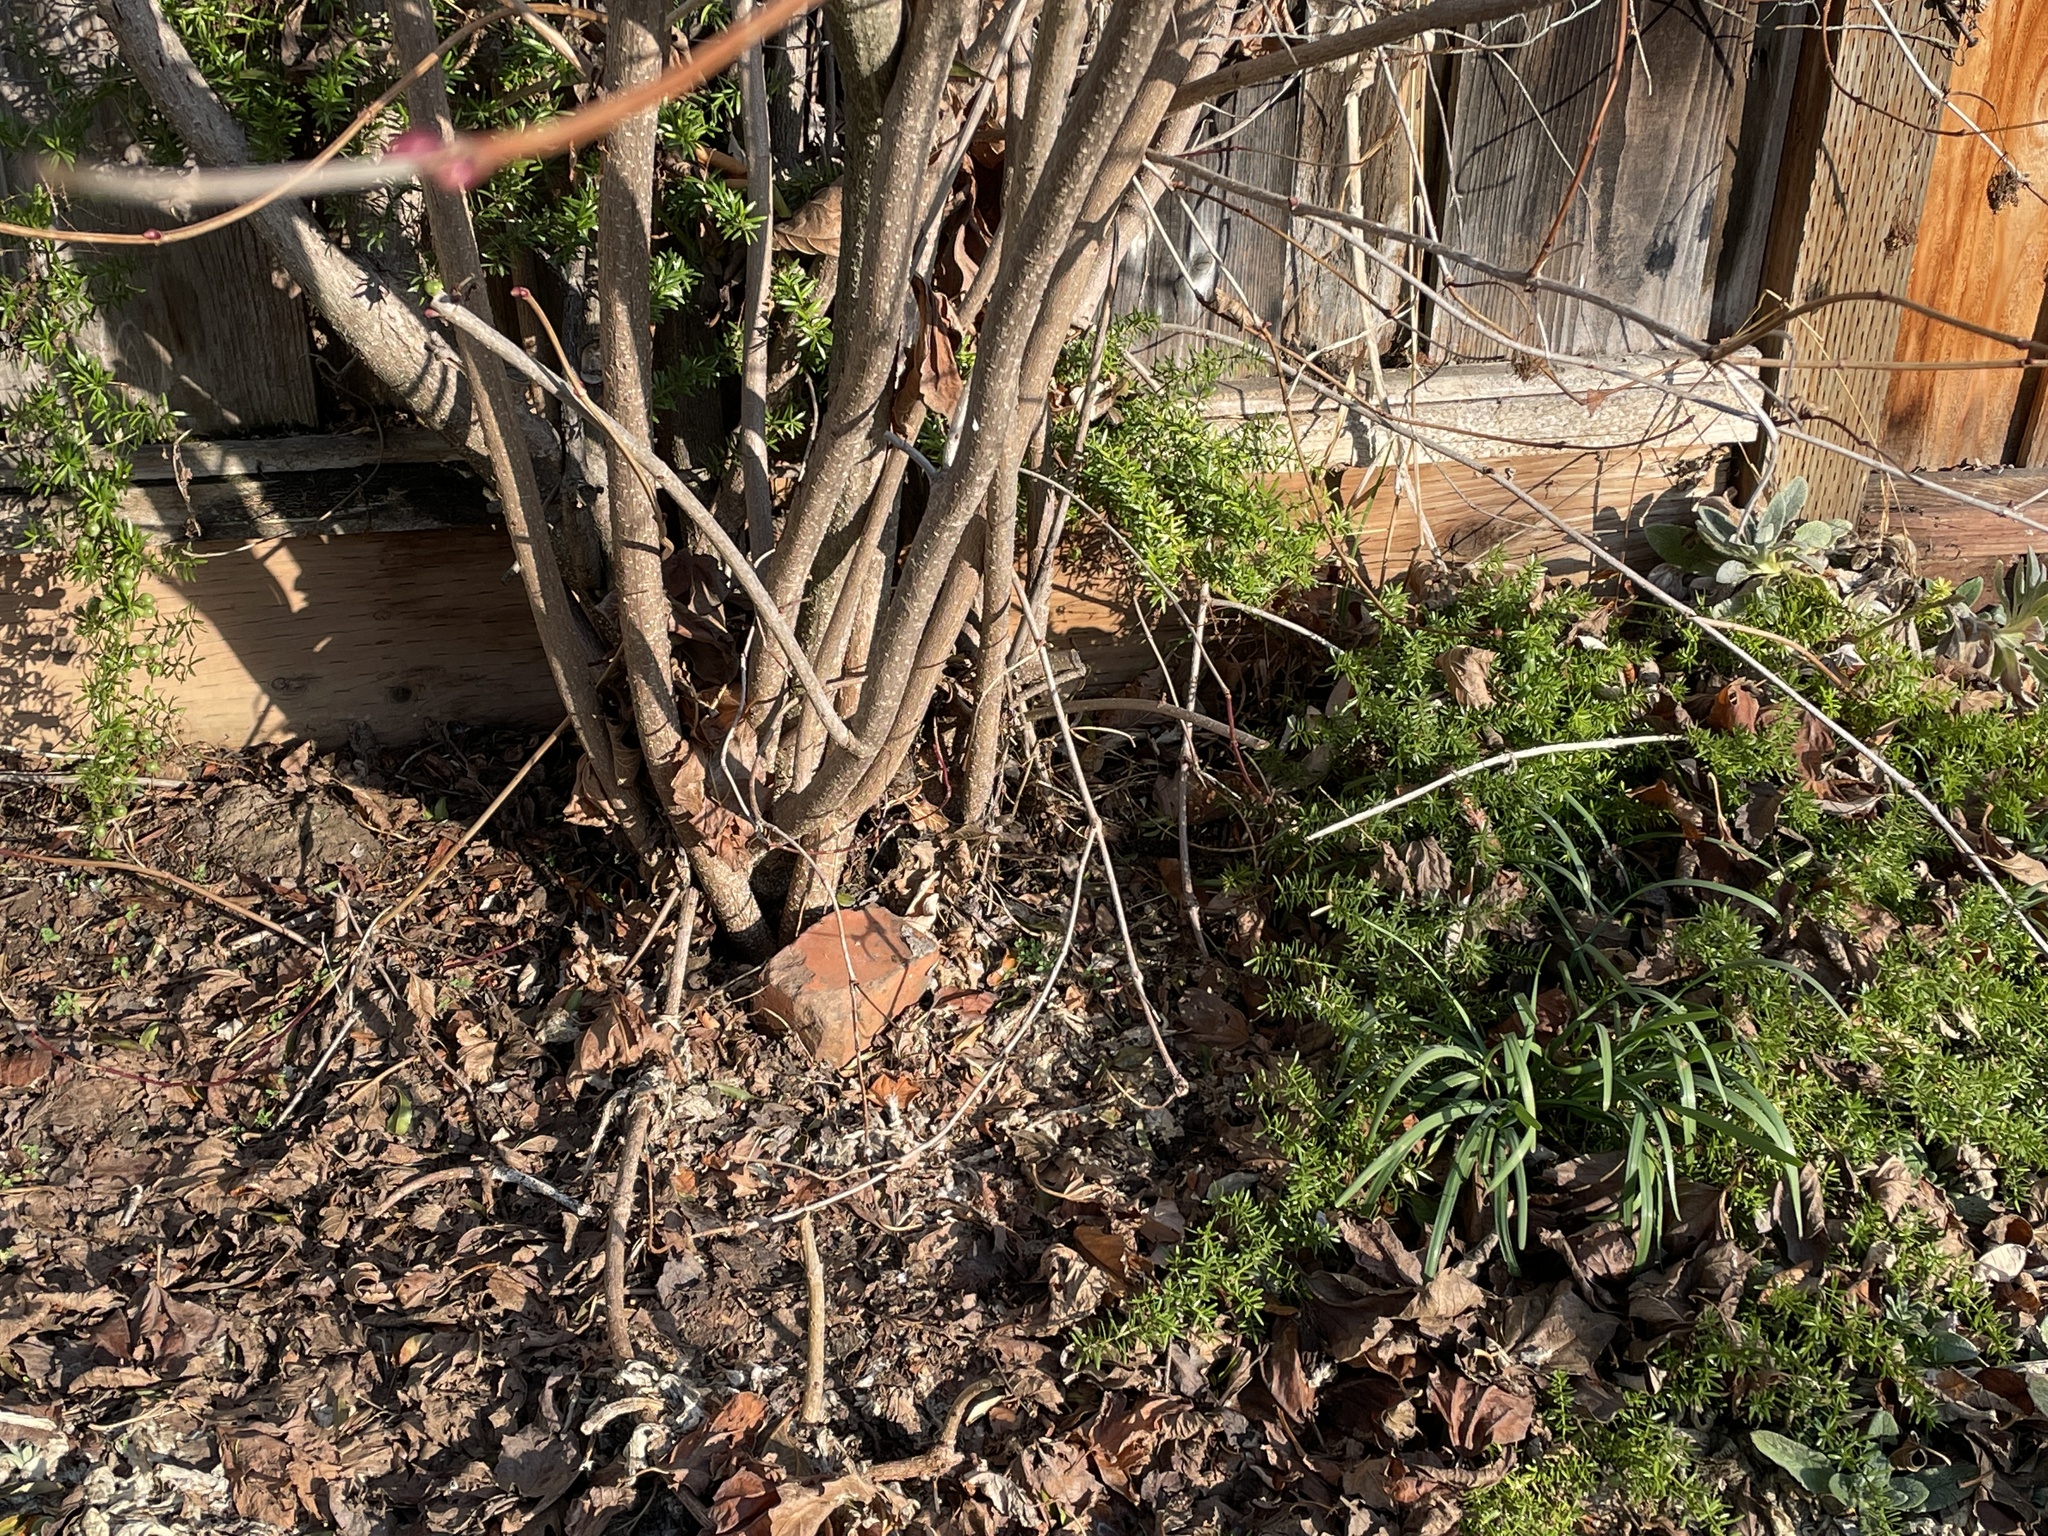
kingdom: Plantae
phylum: Tracheophyta
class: Liliopsida
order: Asparagales
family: Asparagaceae
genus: Asparagus
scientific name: Asparagus aethiopicus
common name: Sprenger's asparagus fern
